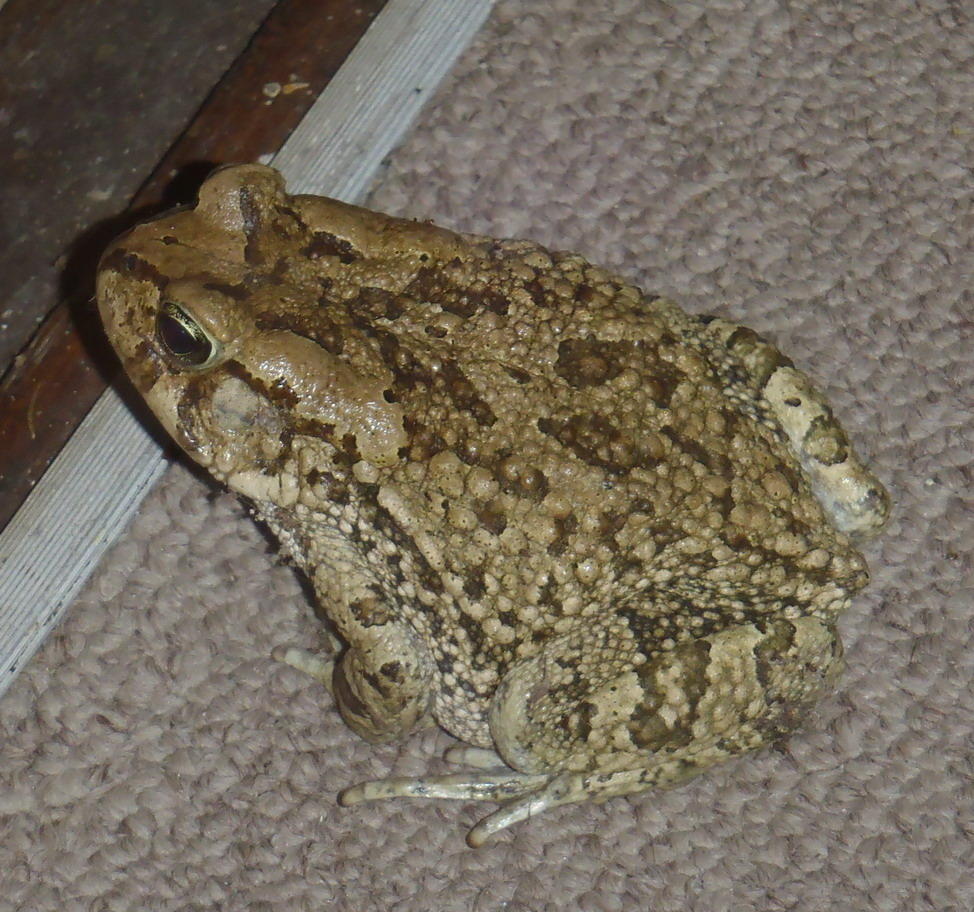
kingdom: Animalia
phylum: Chordata
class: Amphibia
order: Anura
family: Bufonidae
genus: Sclerophrys
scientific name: Sclerophrys capensis
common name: Ranger’s toad
